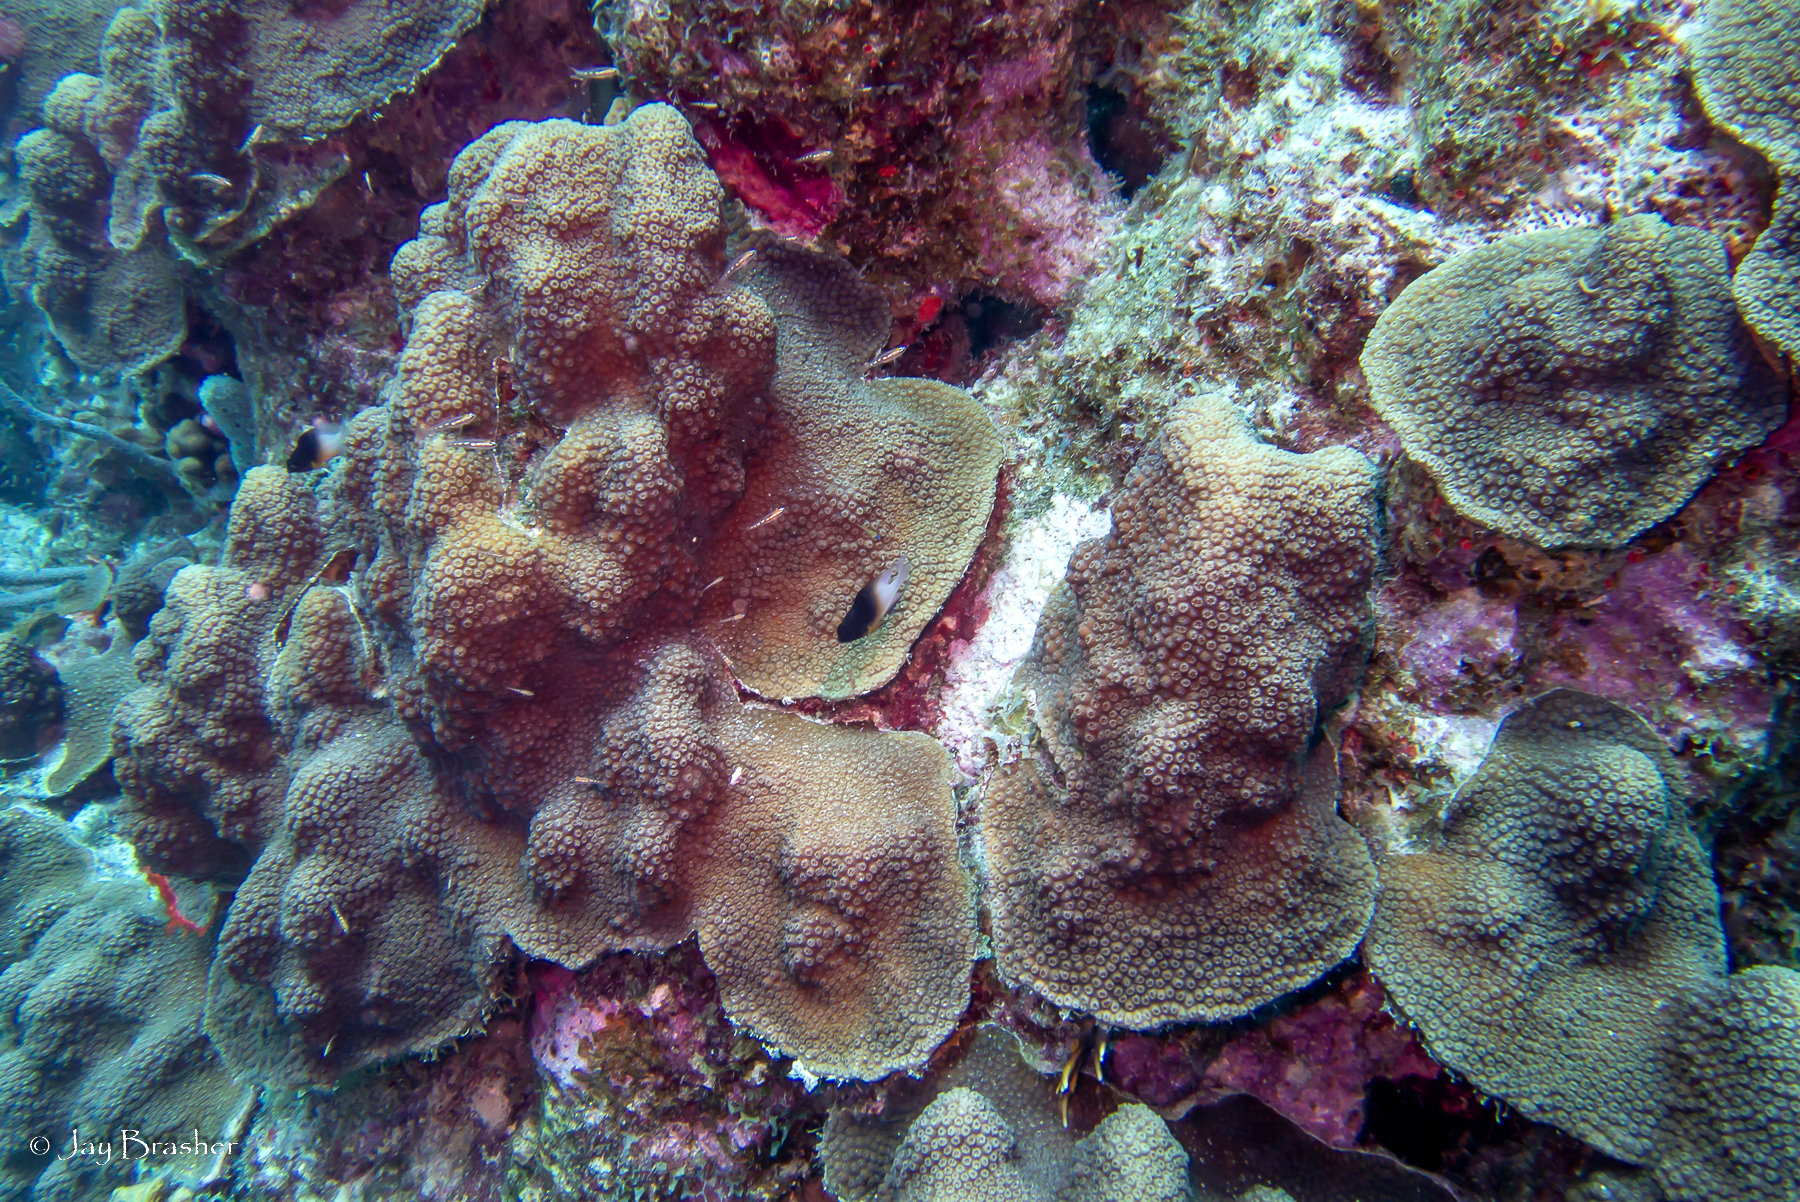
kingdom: Animalia
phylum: Cnidaria
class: Anthozoa
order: Scleractinia
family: Merulinidae
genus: Orbicella
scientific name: Orbicella faveolata
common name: Mountainous star coral
